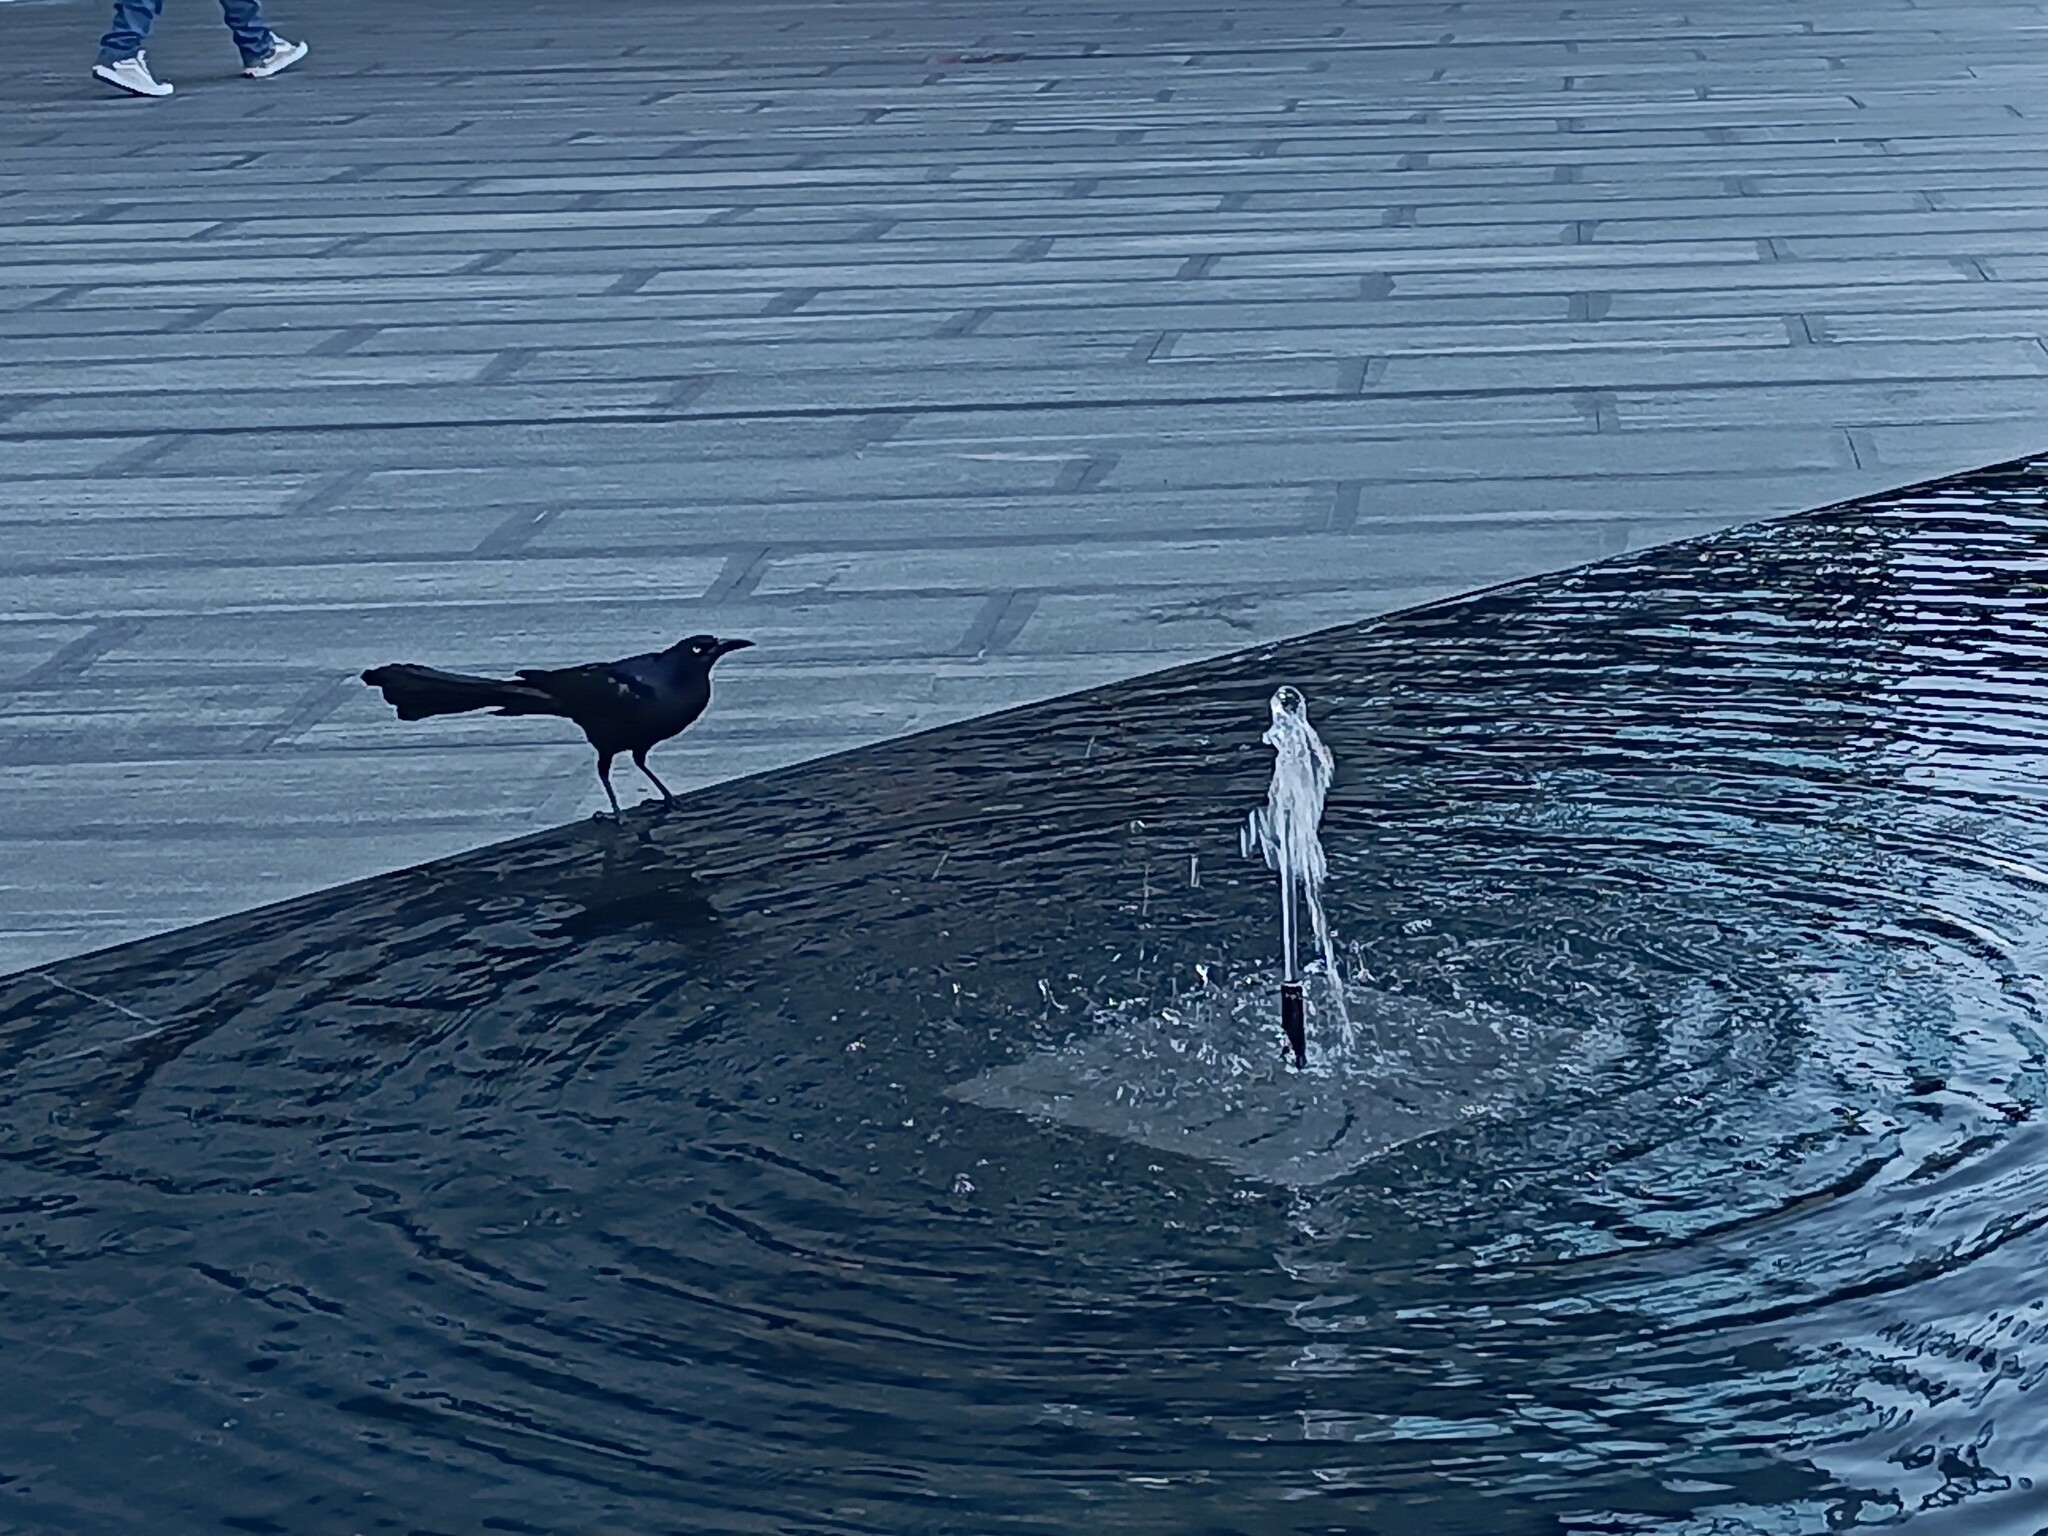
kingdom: Animalia
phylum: Chordata
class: Aves
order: Passeriformes
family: Icteridae
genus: Quiscalus
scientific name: Quiscalus mexicanus
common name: Great-tailed grackle
